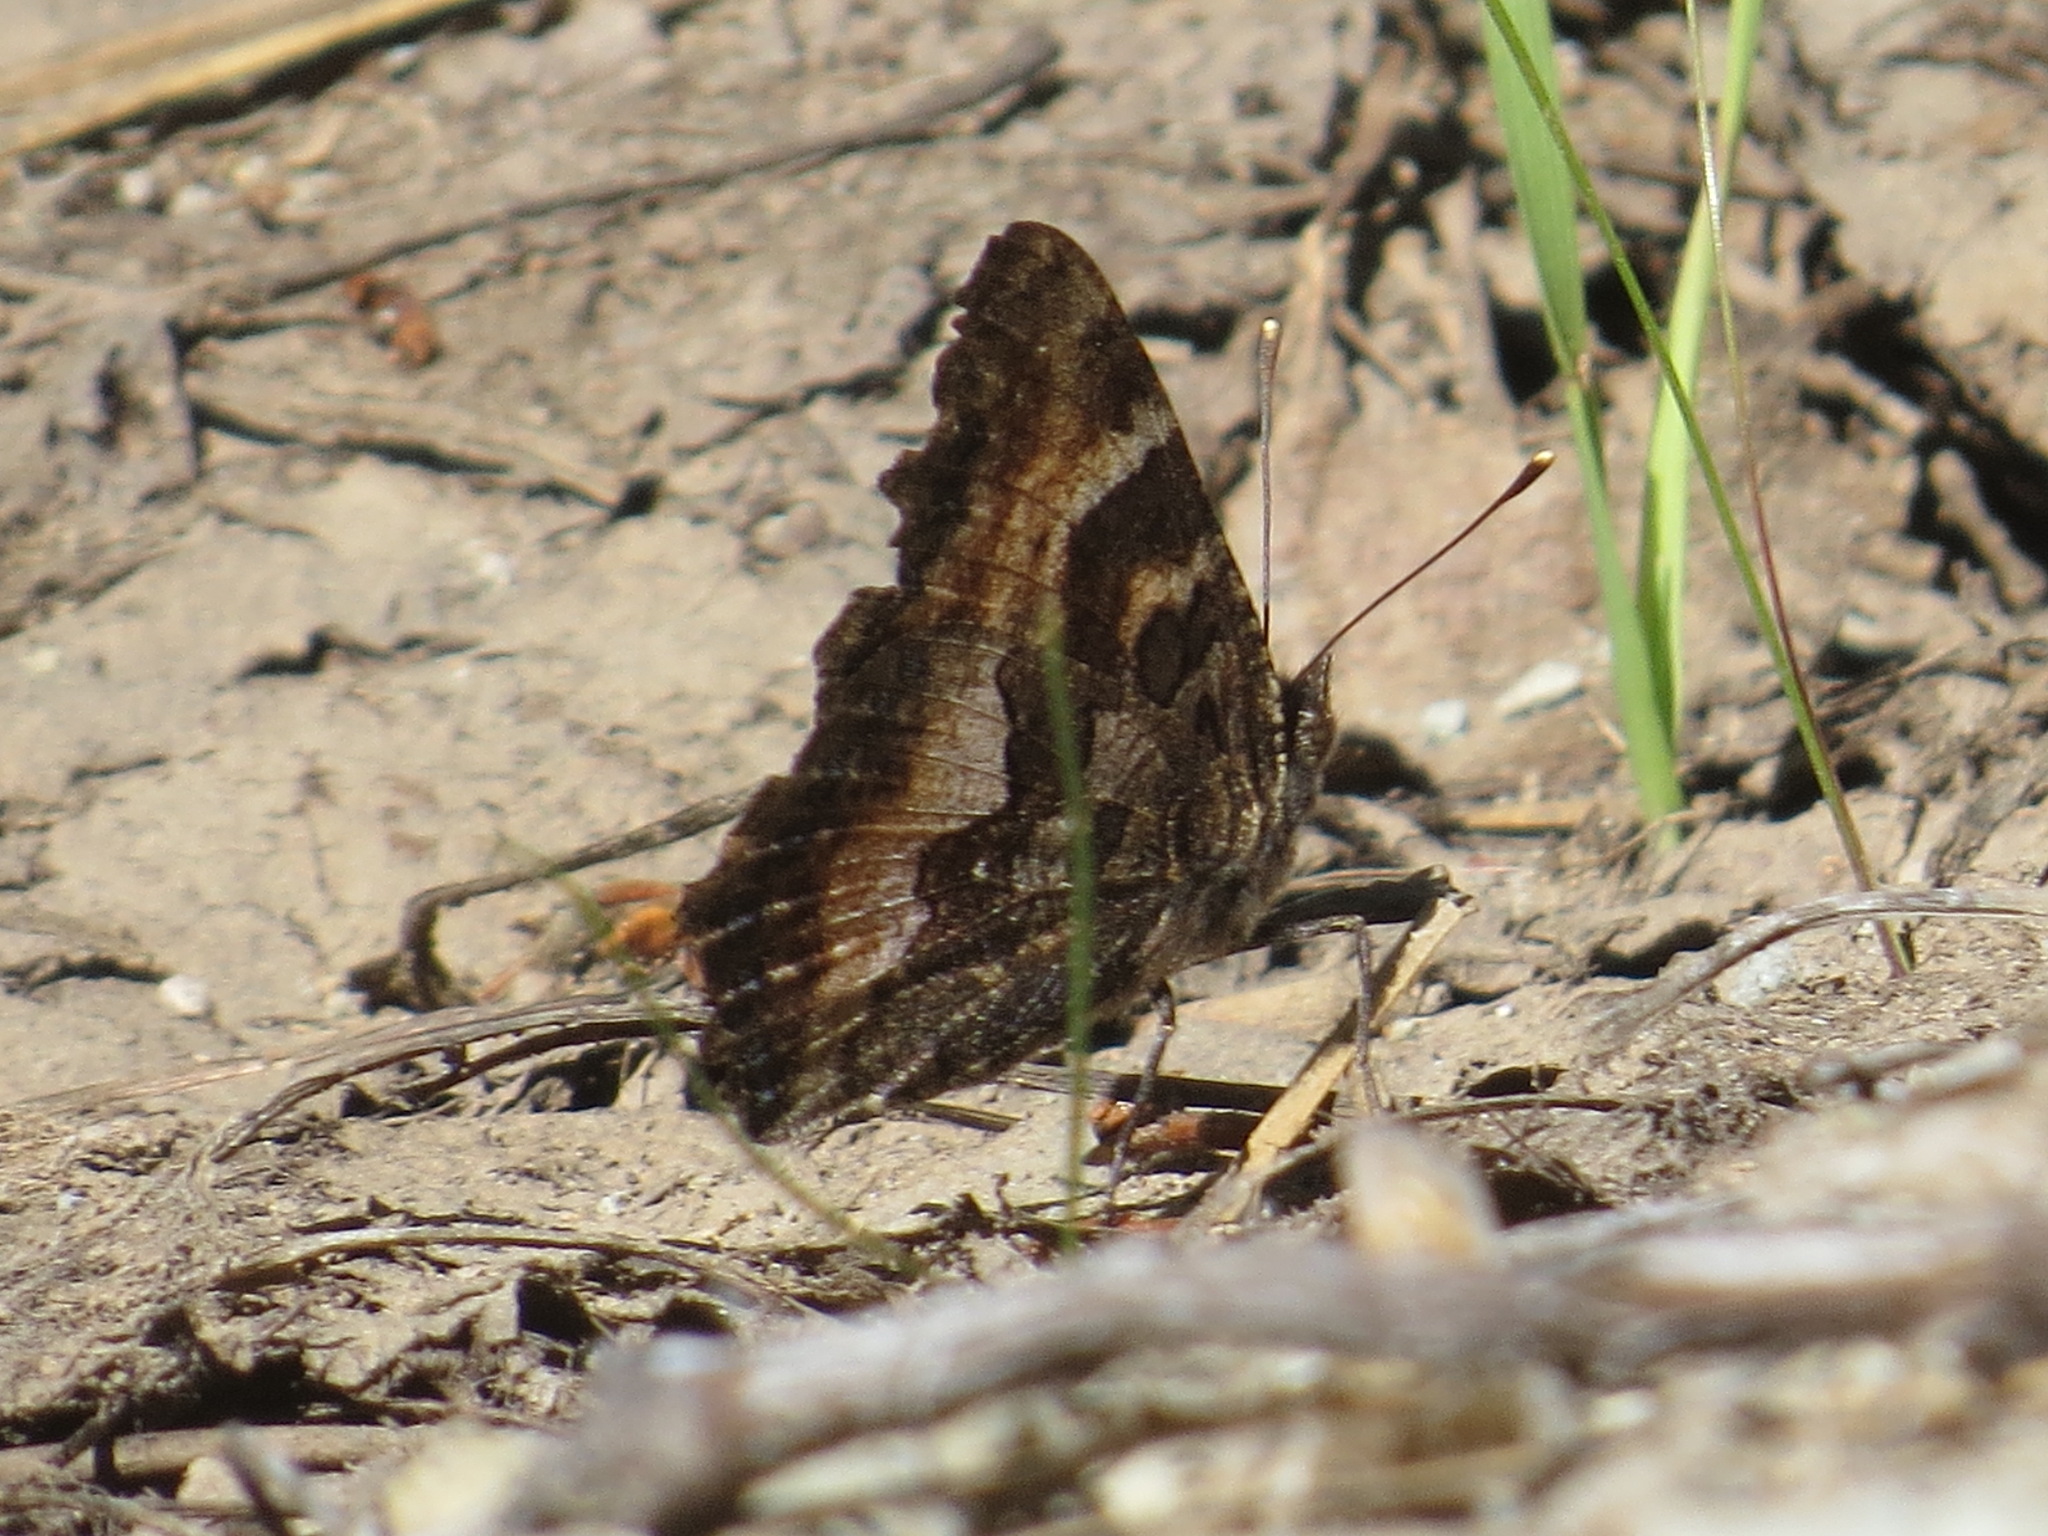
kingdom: Animalia
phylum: Arthropoda
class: Insecta
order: Lepidoptera
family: Nymphalidae
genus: Nymphalis
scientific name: Nymphalis californica
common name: California tortoiseshell
